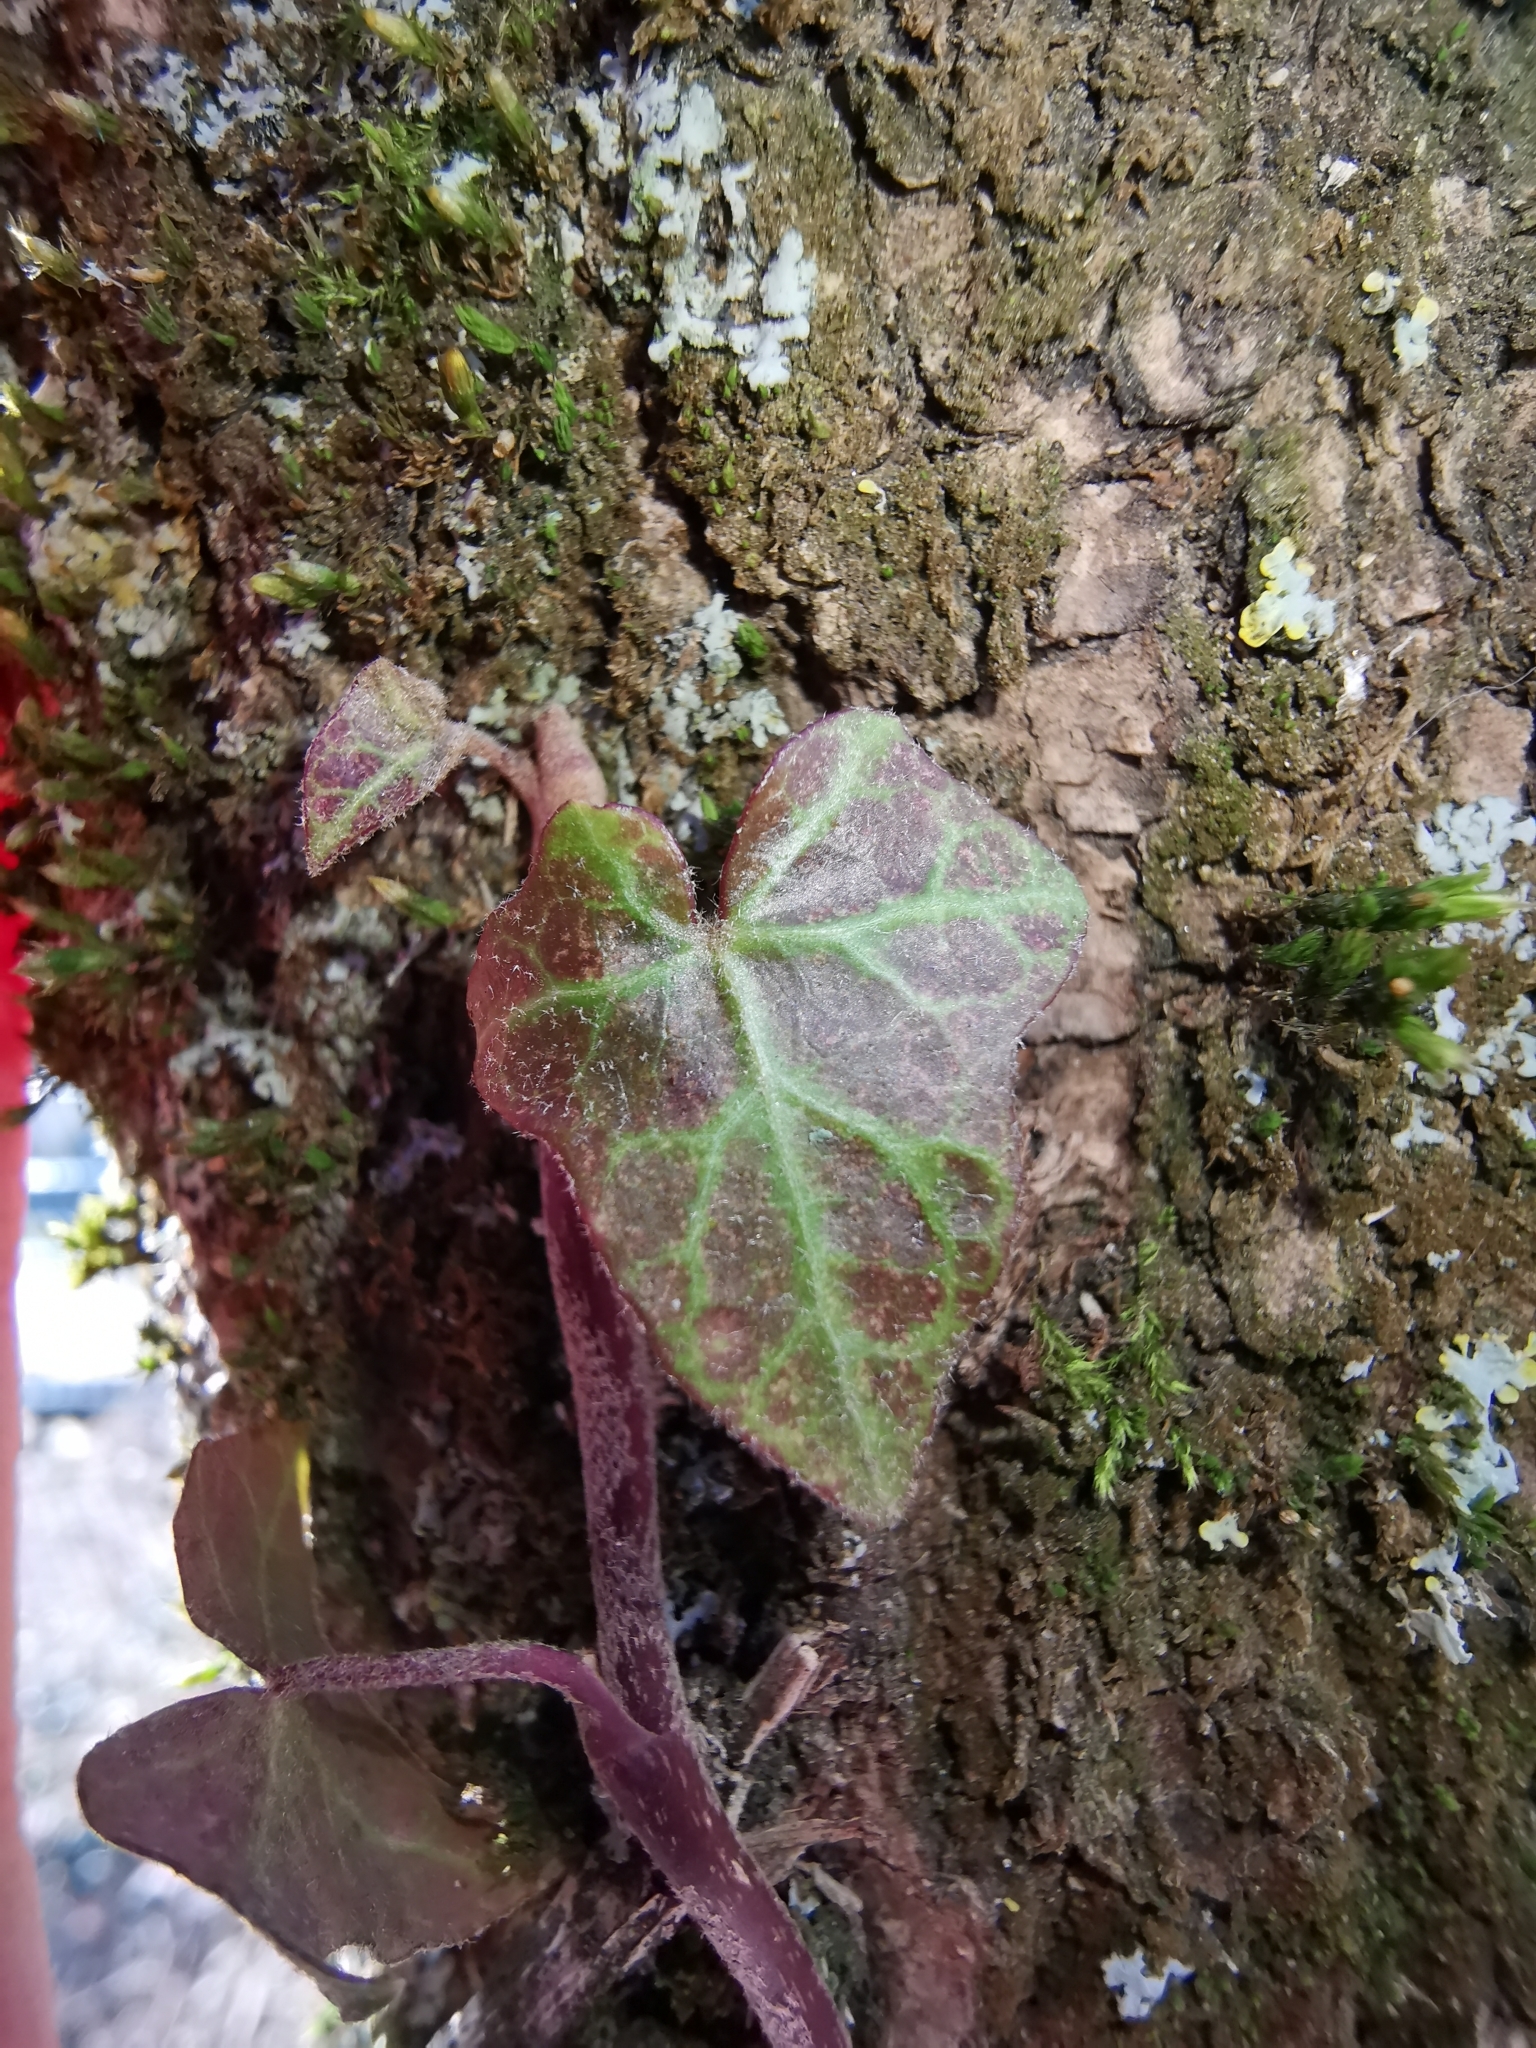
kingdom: Plantae
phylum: Tracheophyta
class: Magnoliopsida
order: Apiales
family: Araliaceae
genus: Hedera
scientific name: Hedera helix
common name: Ivy
